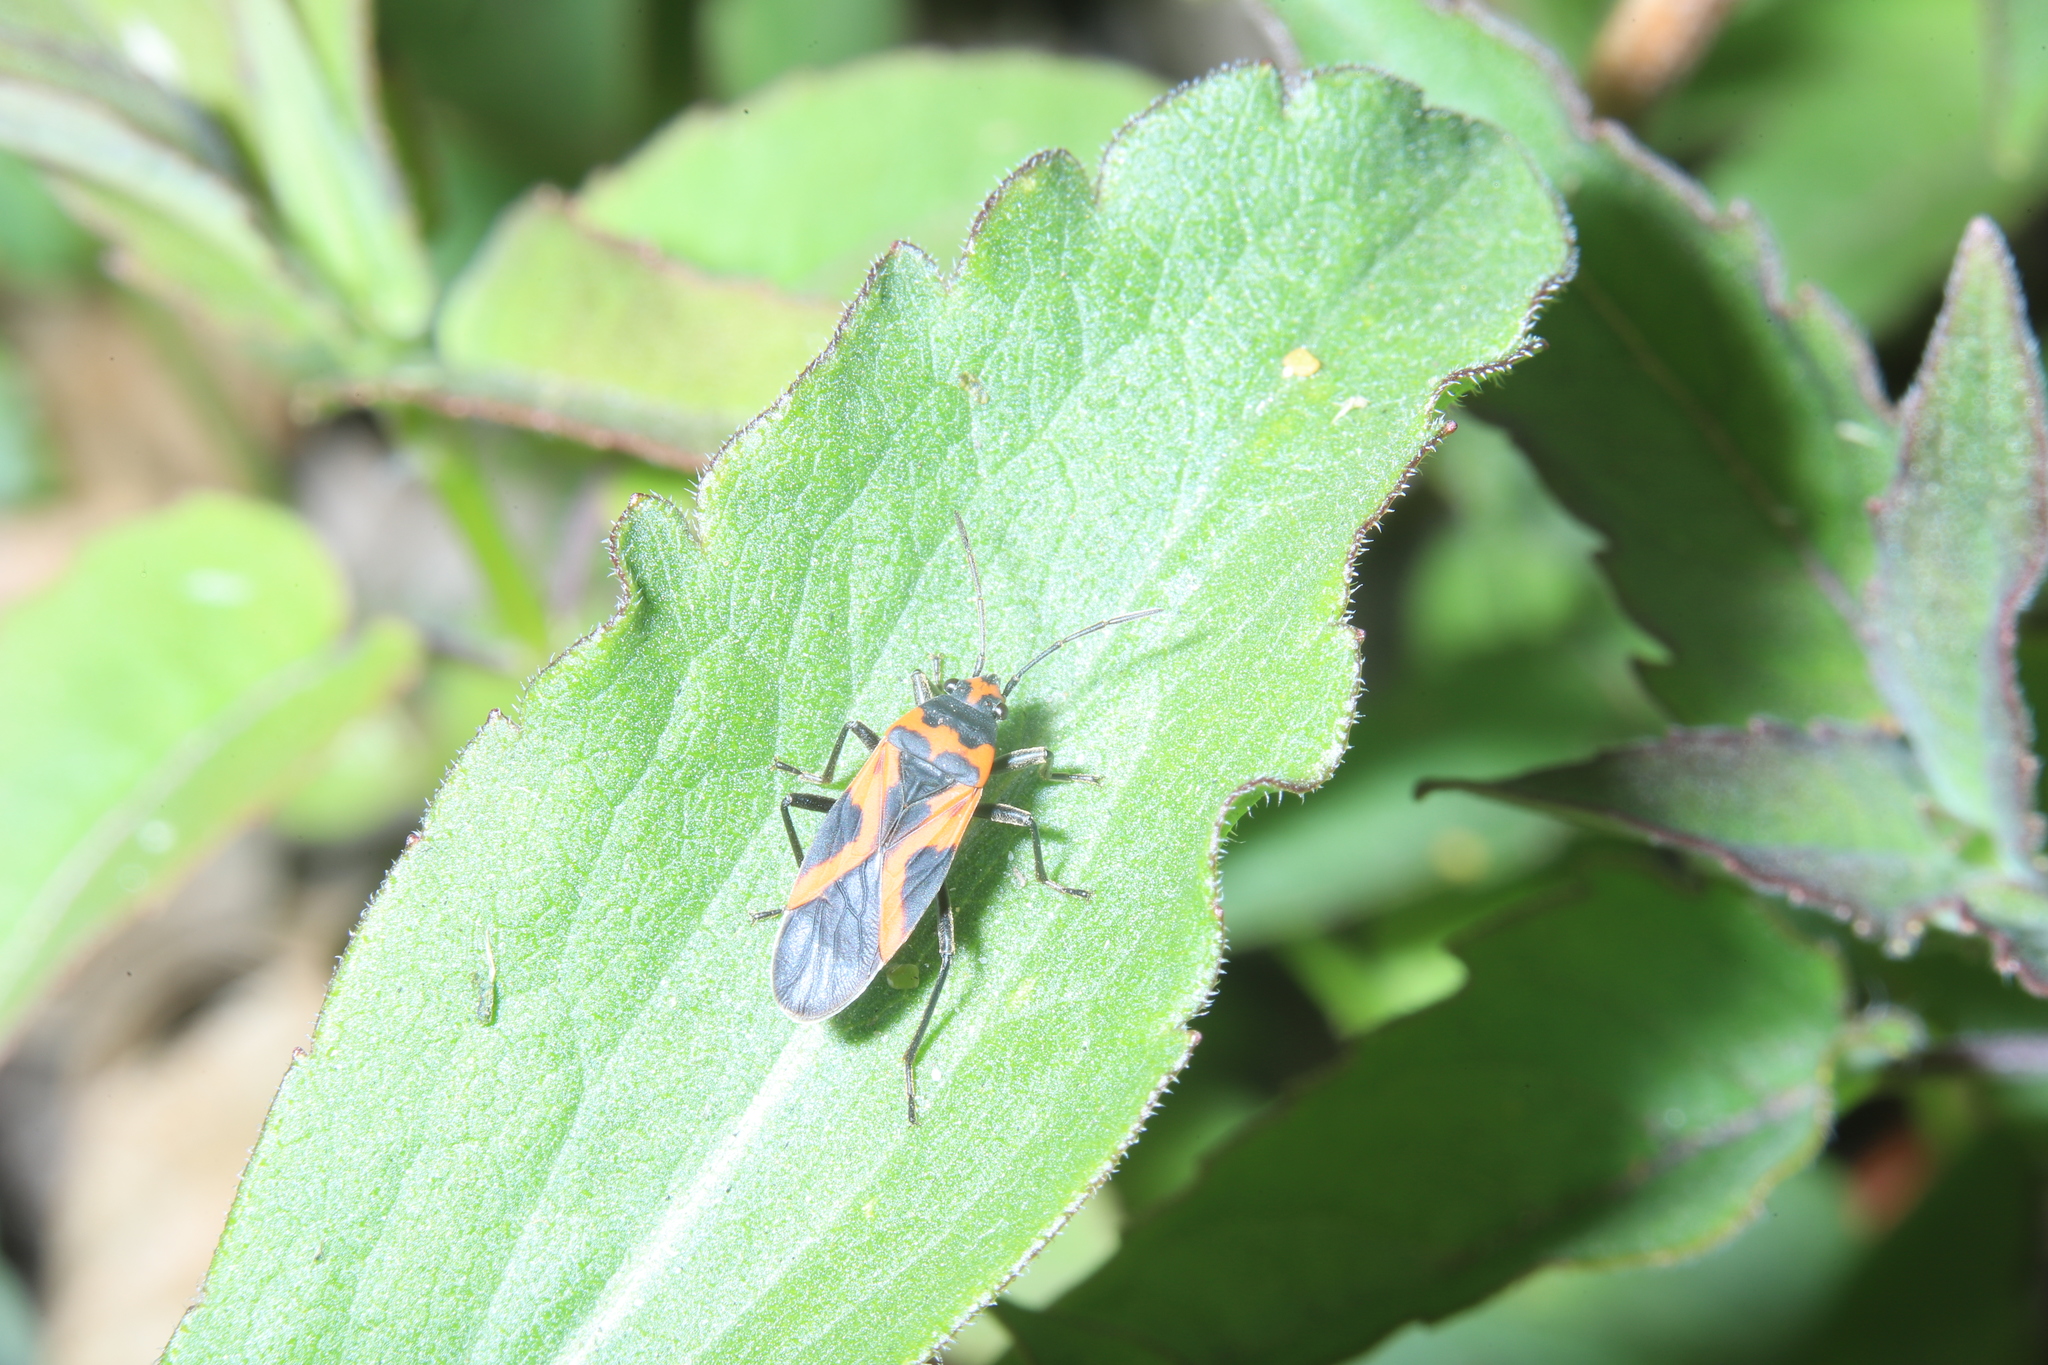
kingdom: Animalia
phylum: Arthropoda
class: Insecta
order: Hemiptera
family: Lygaeidae
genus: Lygaeus
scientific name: Lygaeus turcicus
